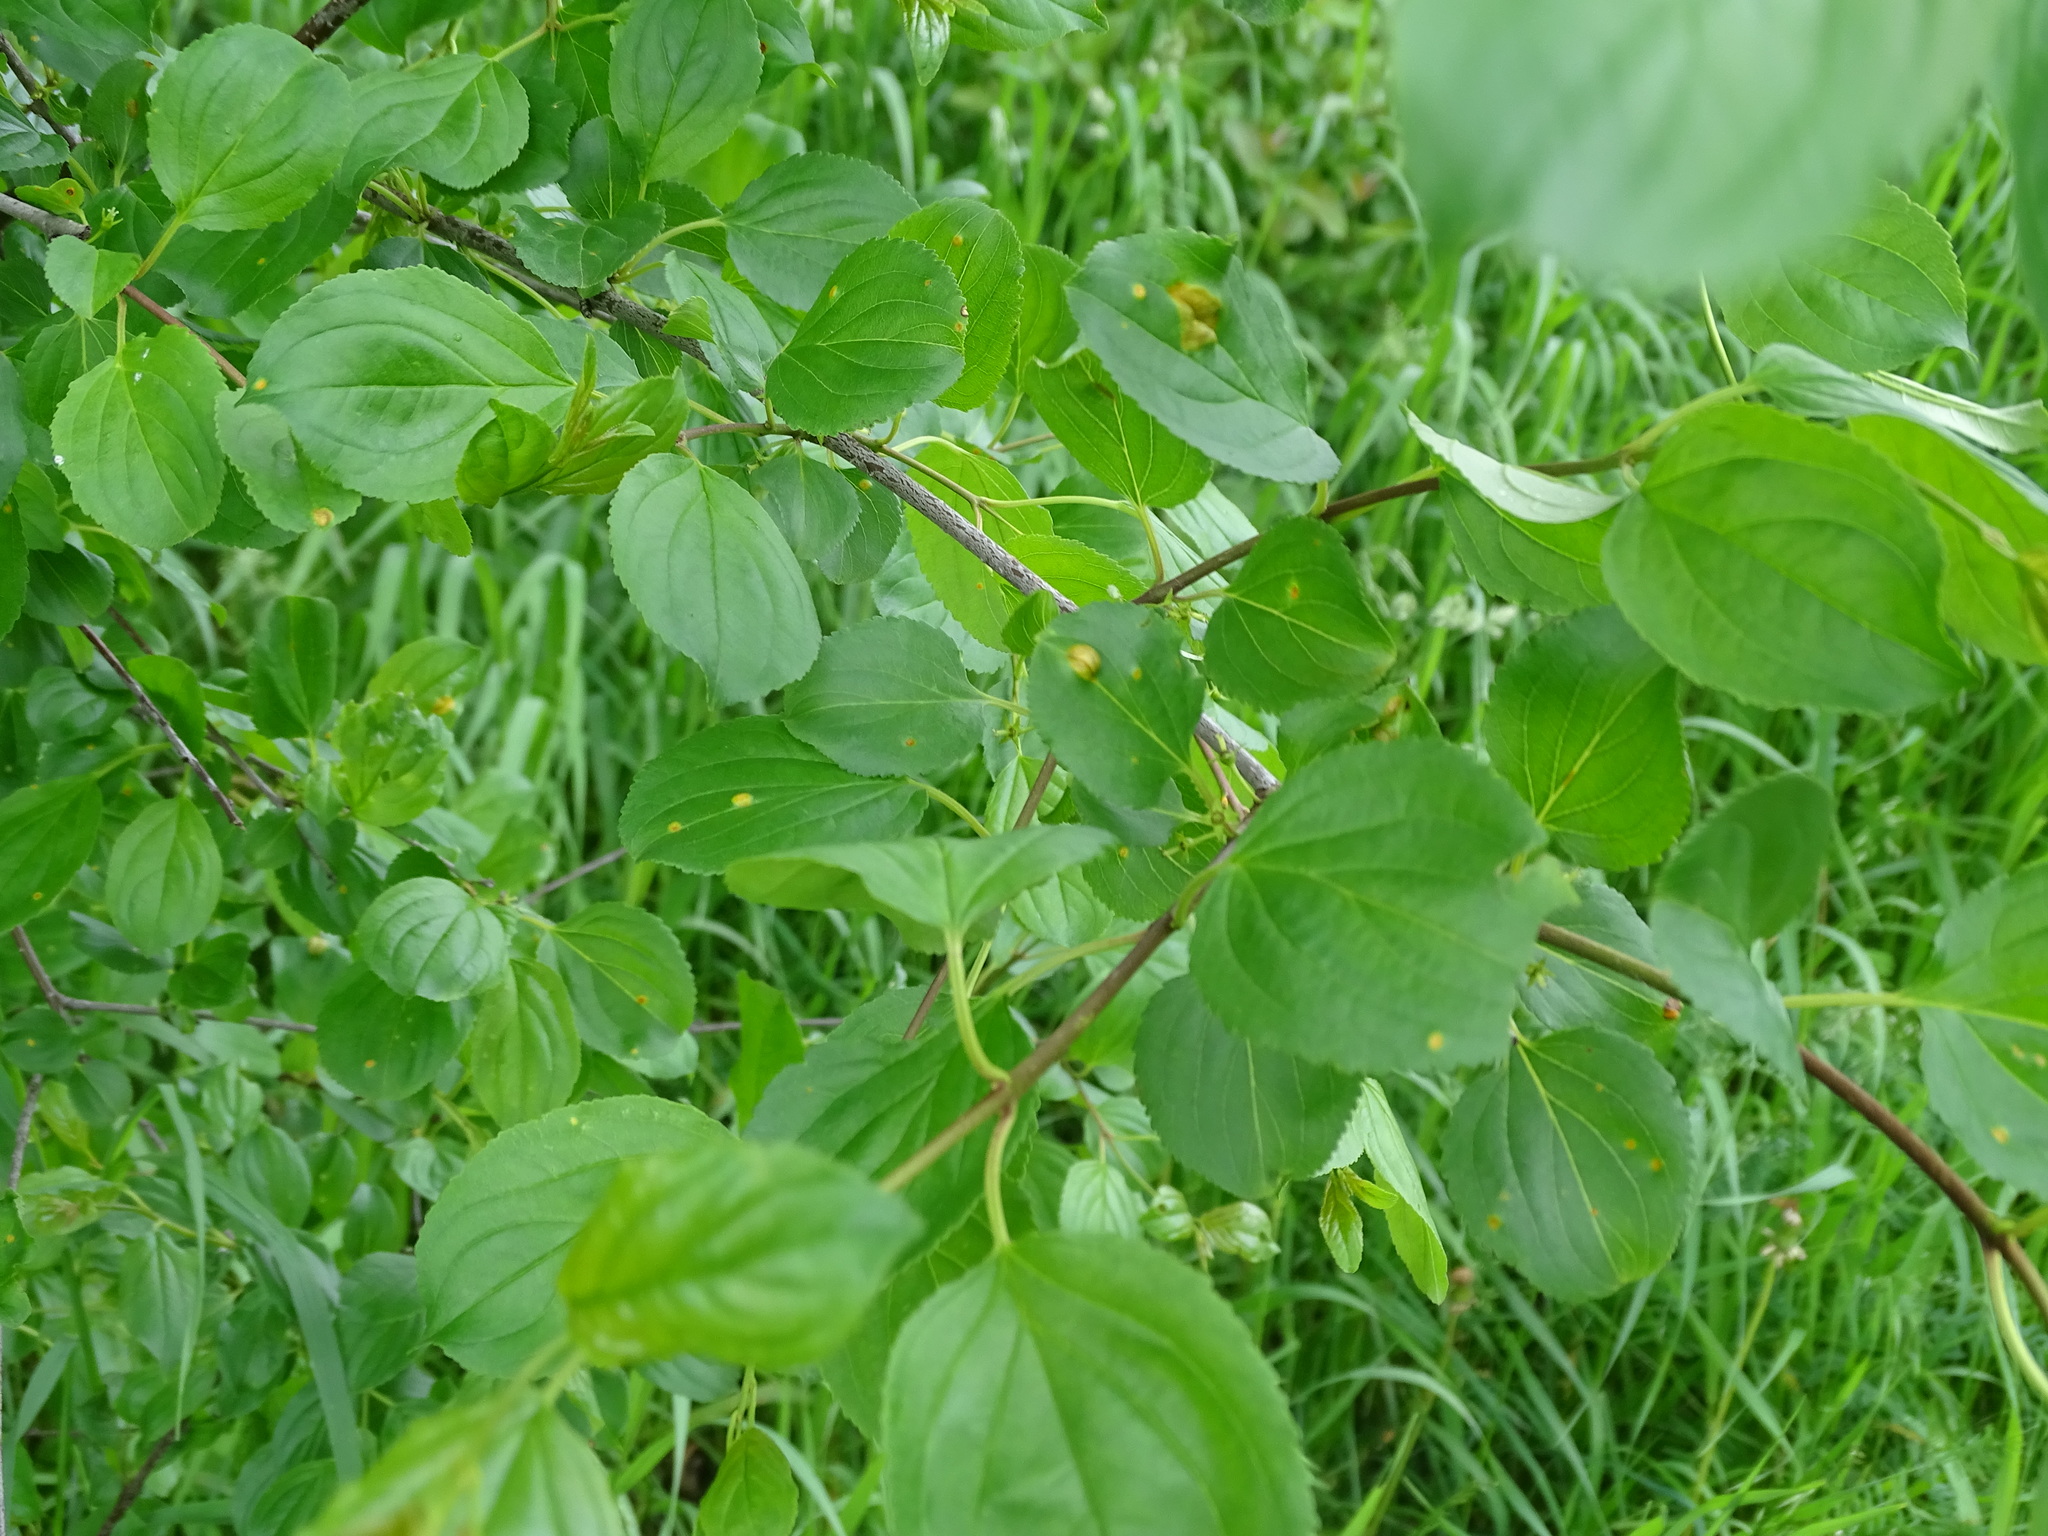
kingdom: Plantae
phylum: Tracheophyta
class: Magnoliopsida
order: Rosales
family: Rhamnaceae
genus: Rhamnus
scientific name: Rhamnus cathartica
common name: Common buckthorn
